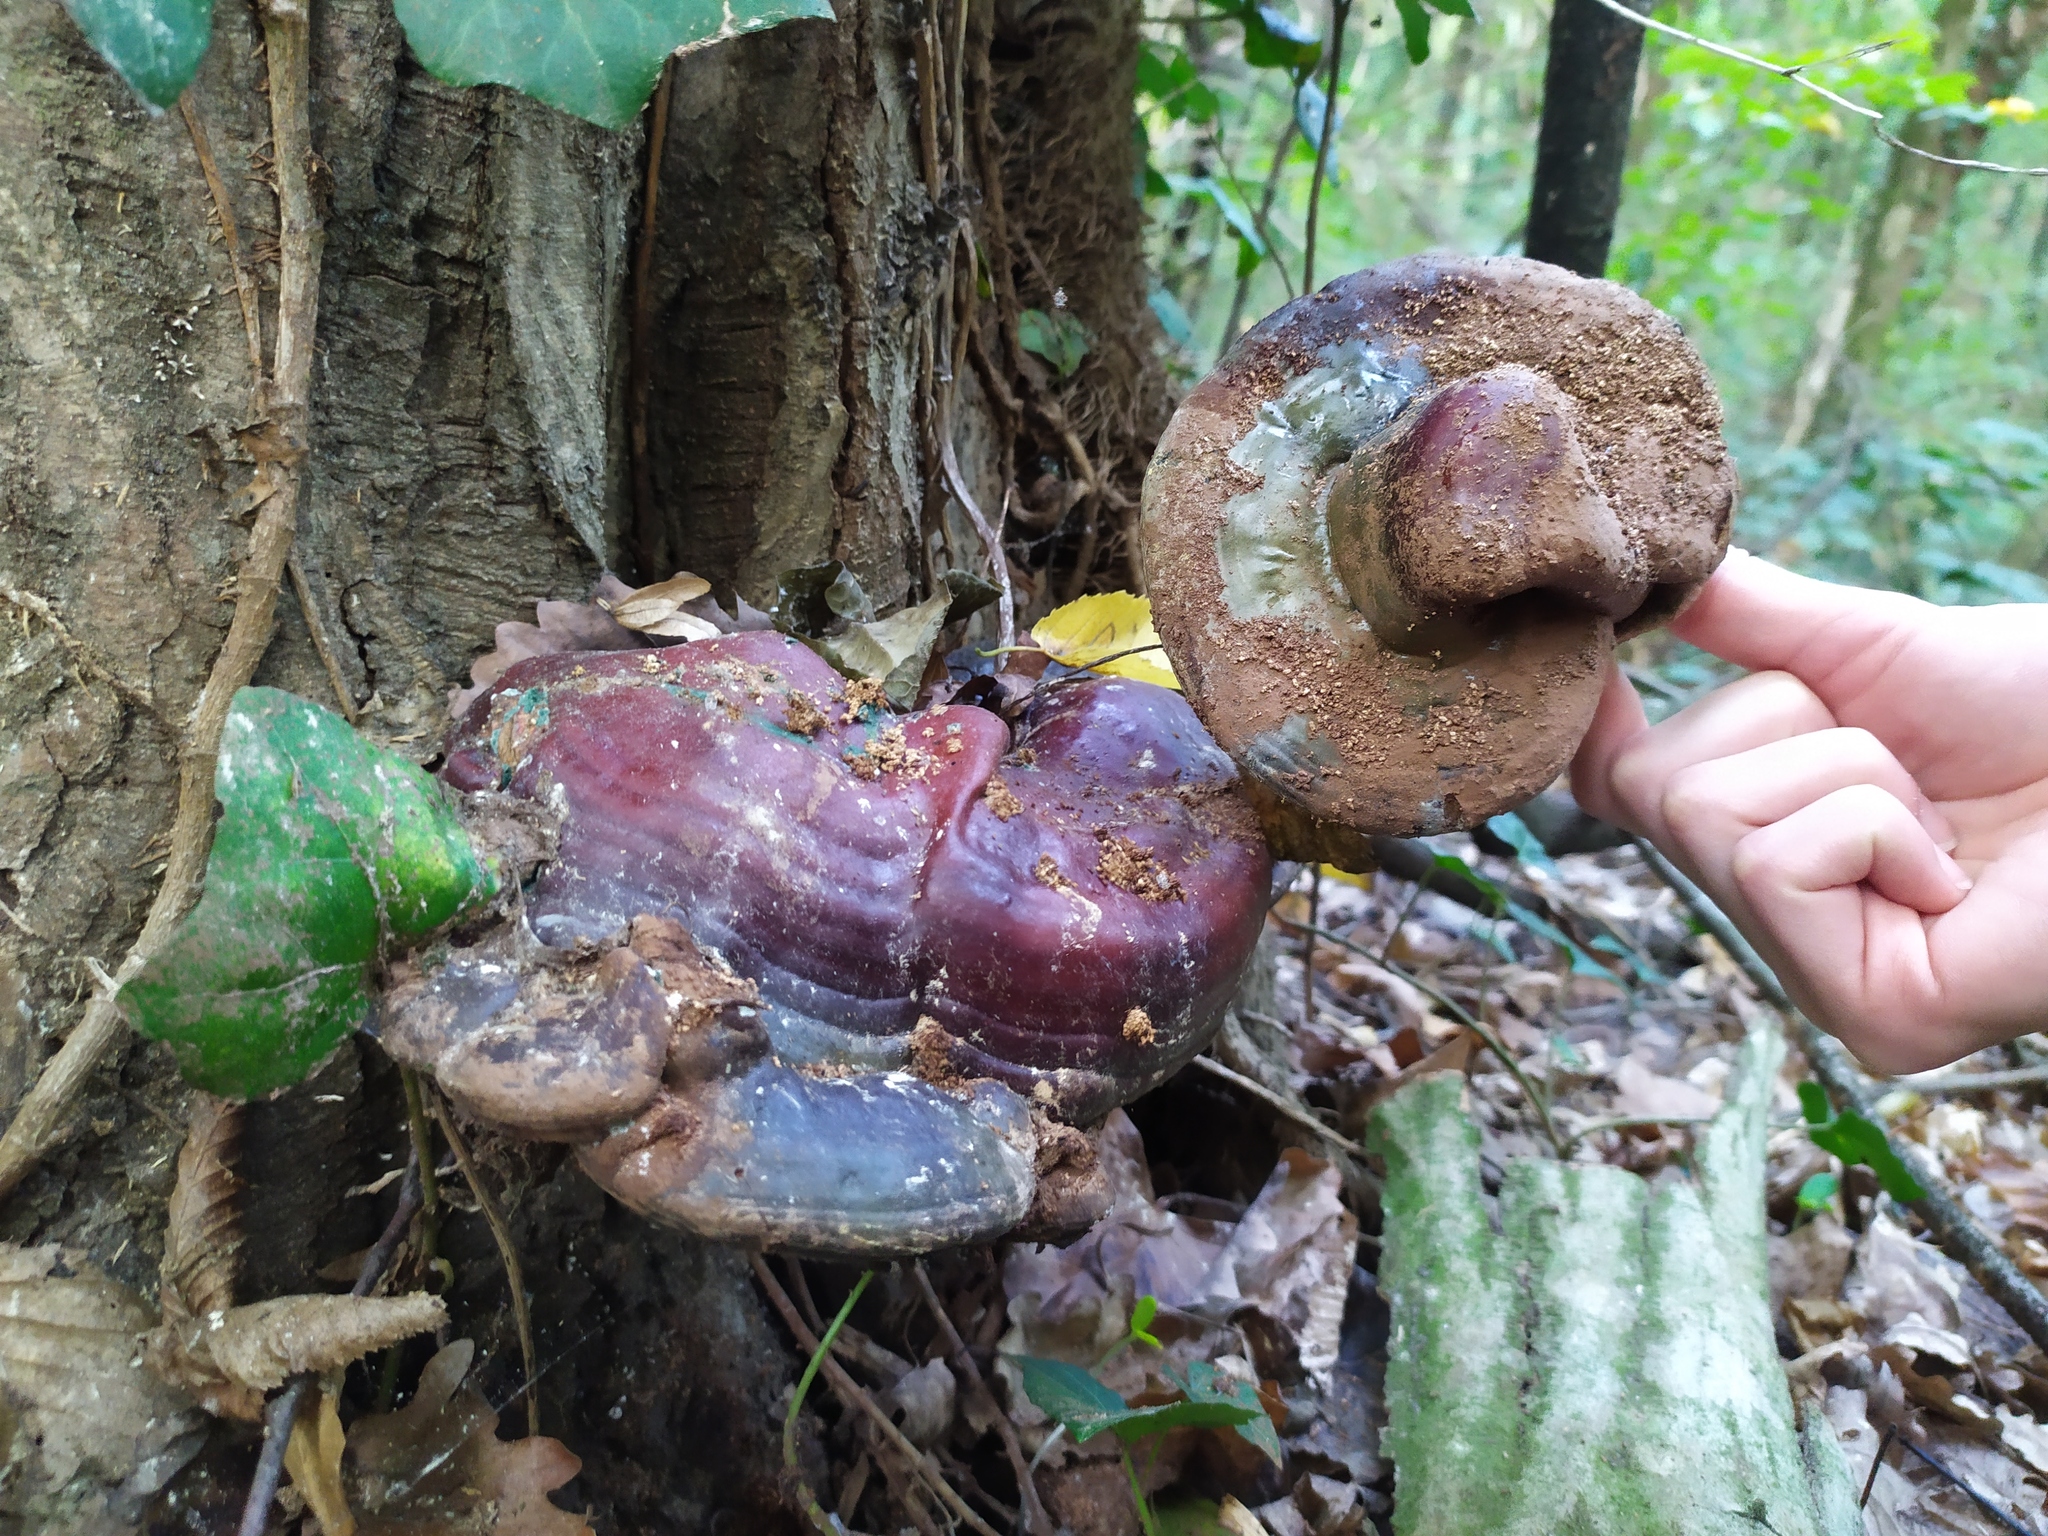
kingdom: Fungi
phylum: Basidiomycota
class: Agaricomycetes
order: Polyporales
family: Polyporaceae
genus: Ganoderma
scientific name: Ganoderma lucidum
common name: Lacquered bracket
